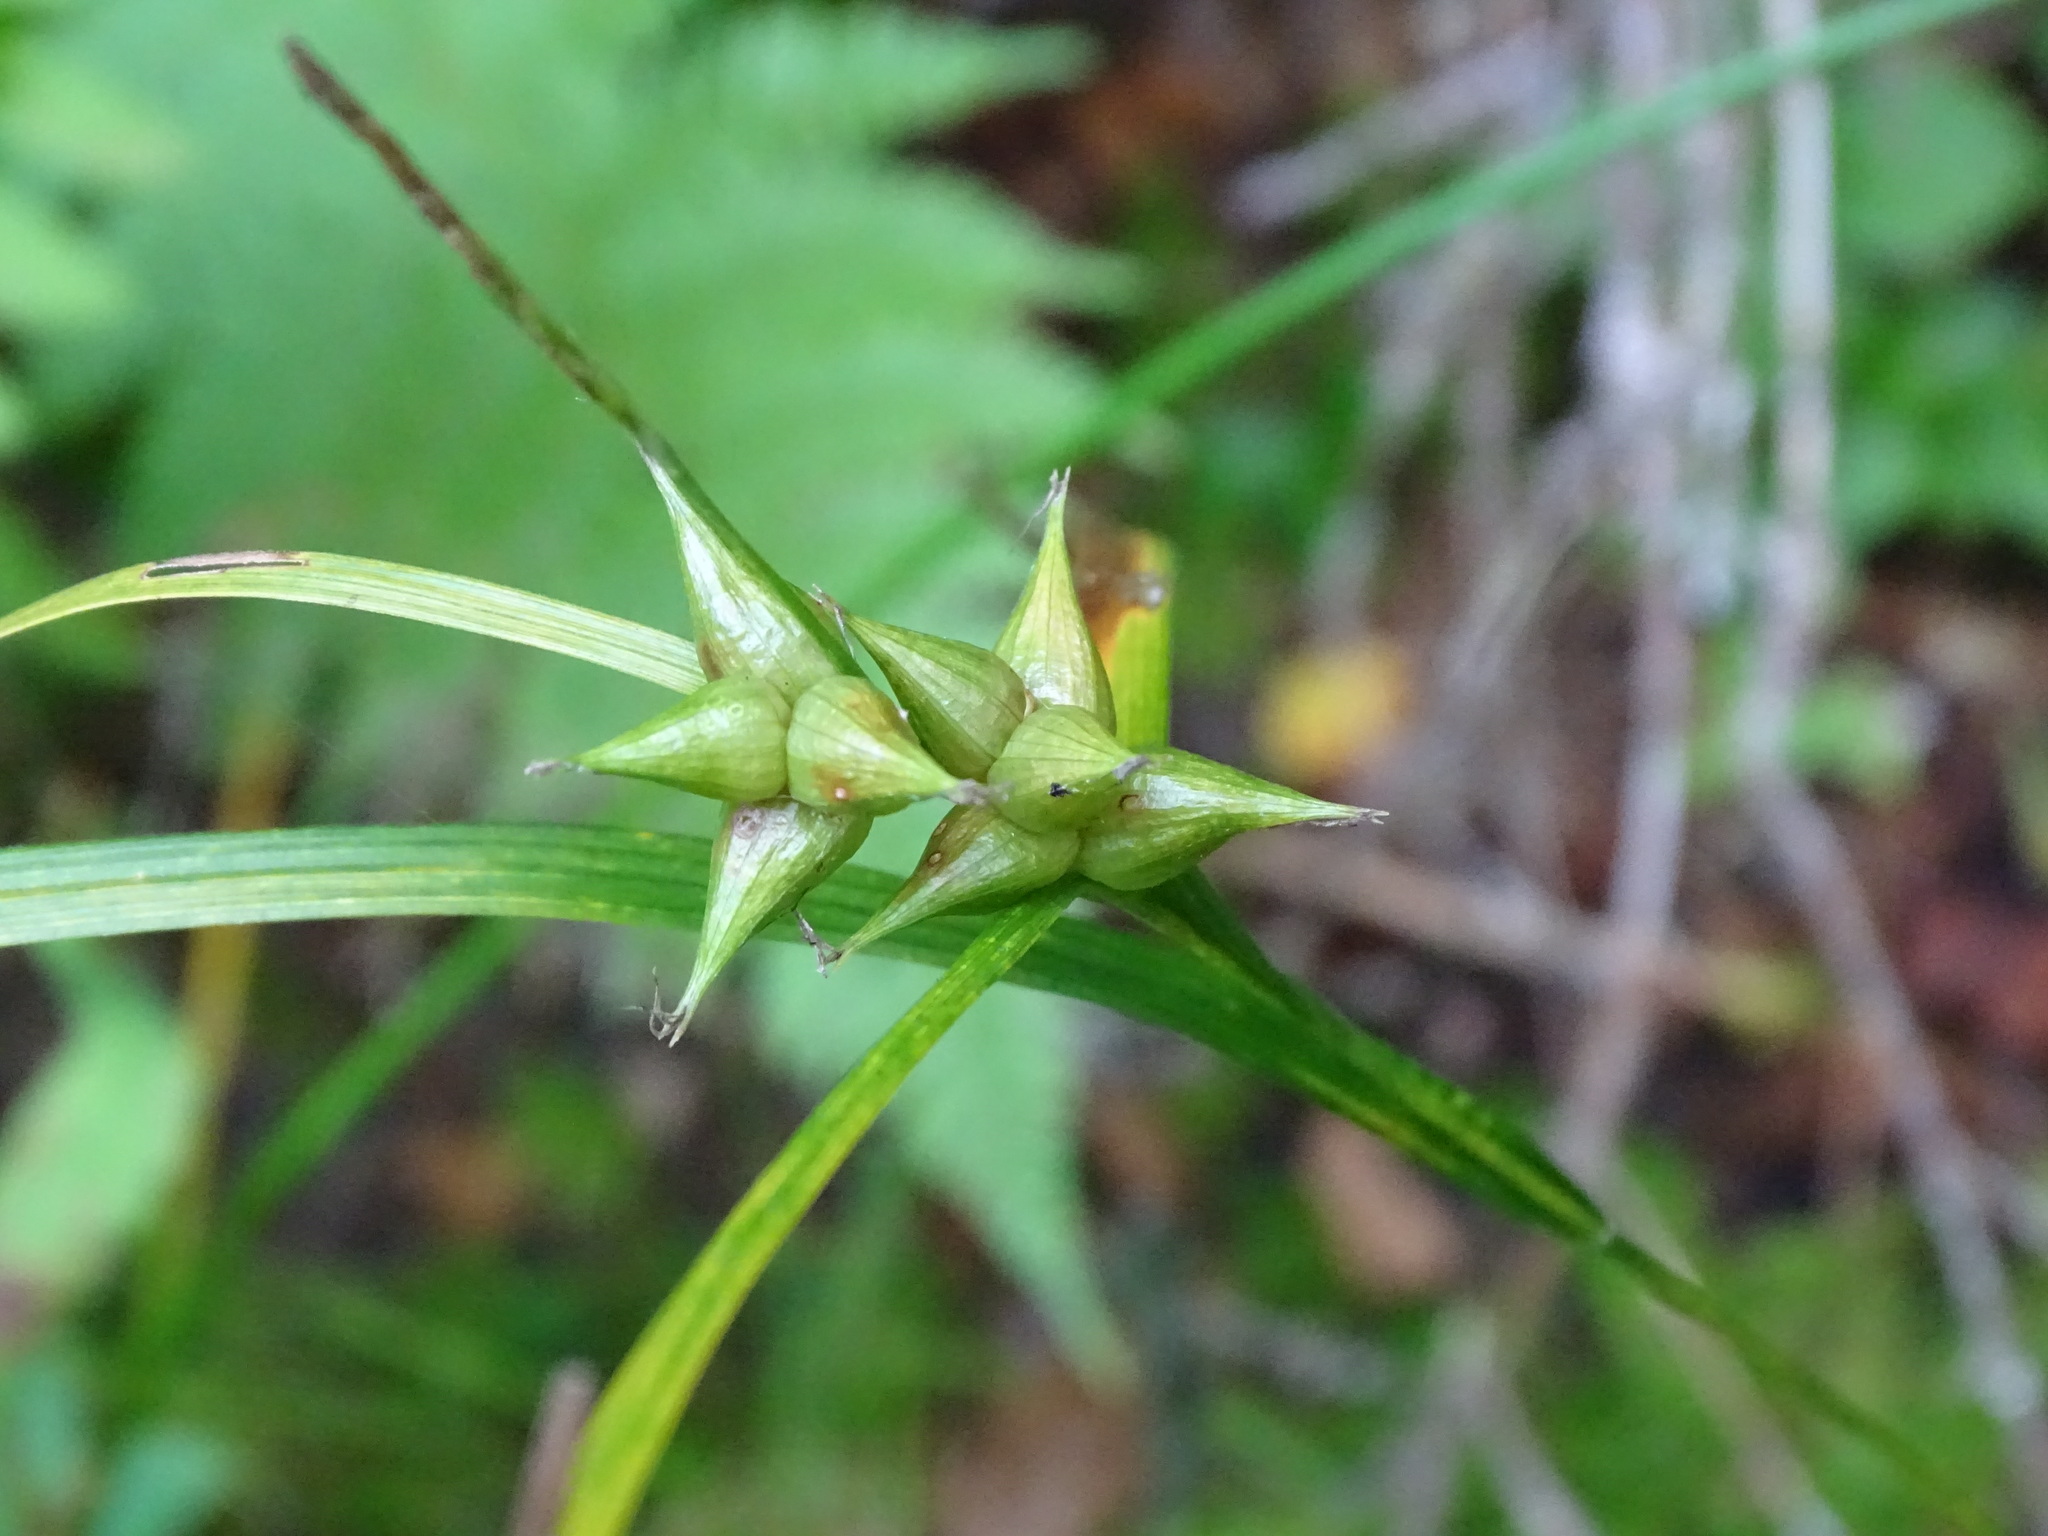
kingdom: Plantae
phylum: Tracheophyta
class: Liliopsida
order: Poales
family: Cyperaceae
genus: Carex
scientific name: Carex intumescens
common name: Greater bladder sedge
